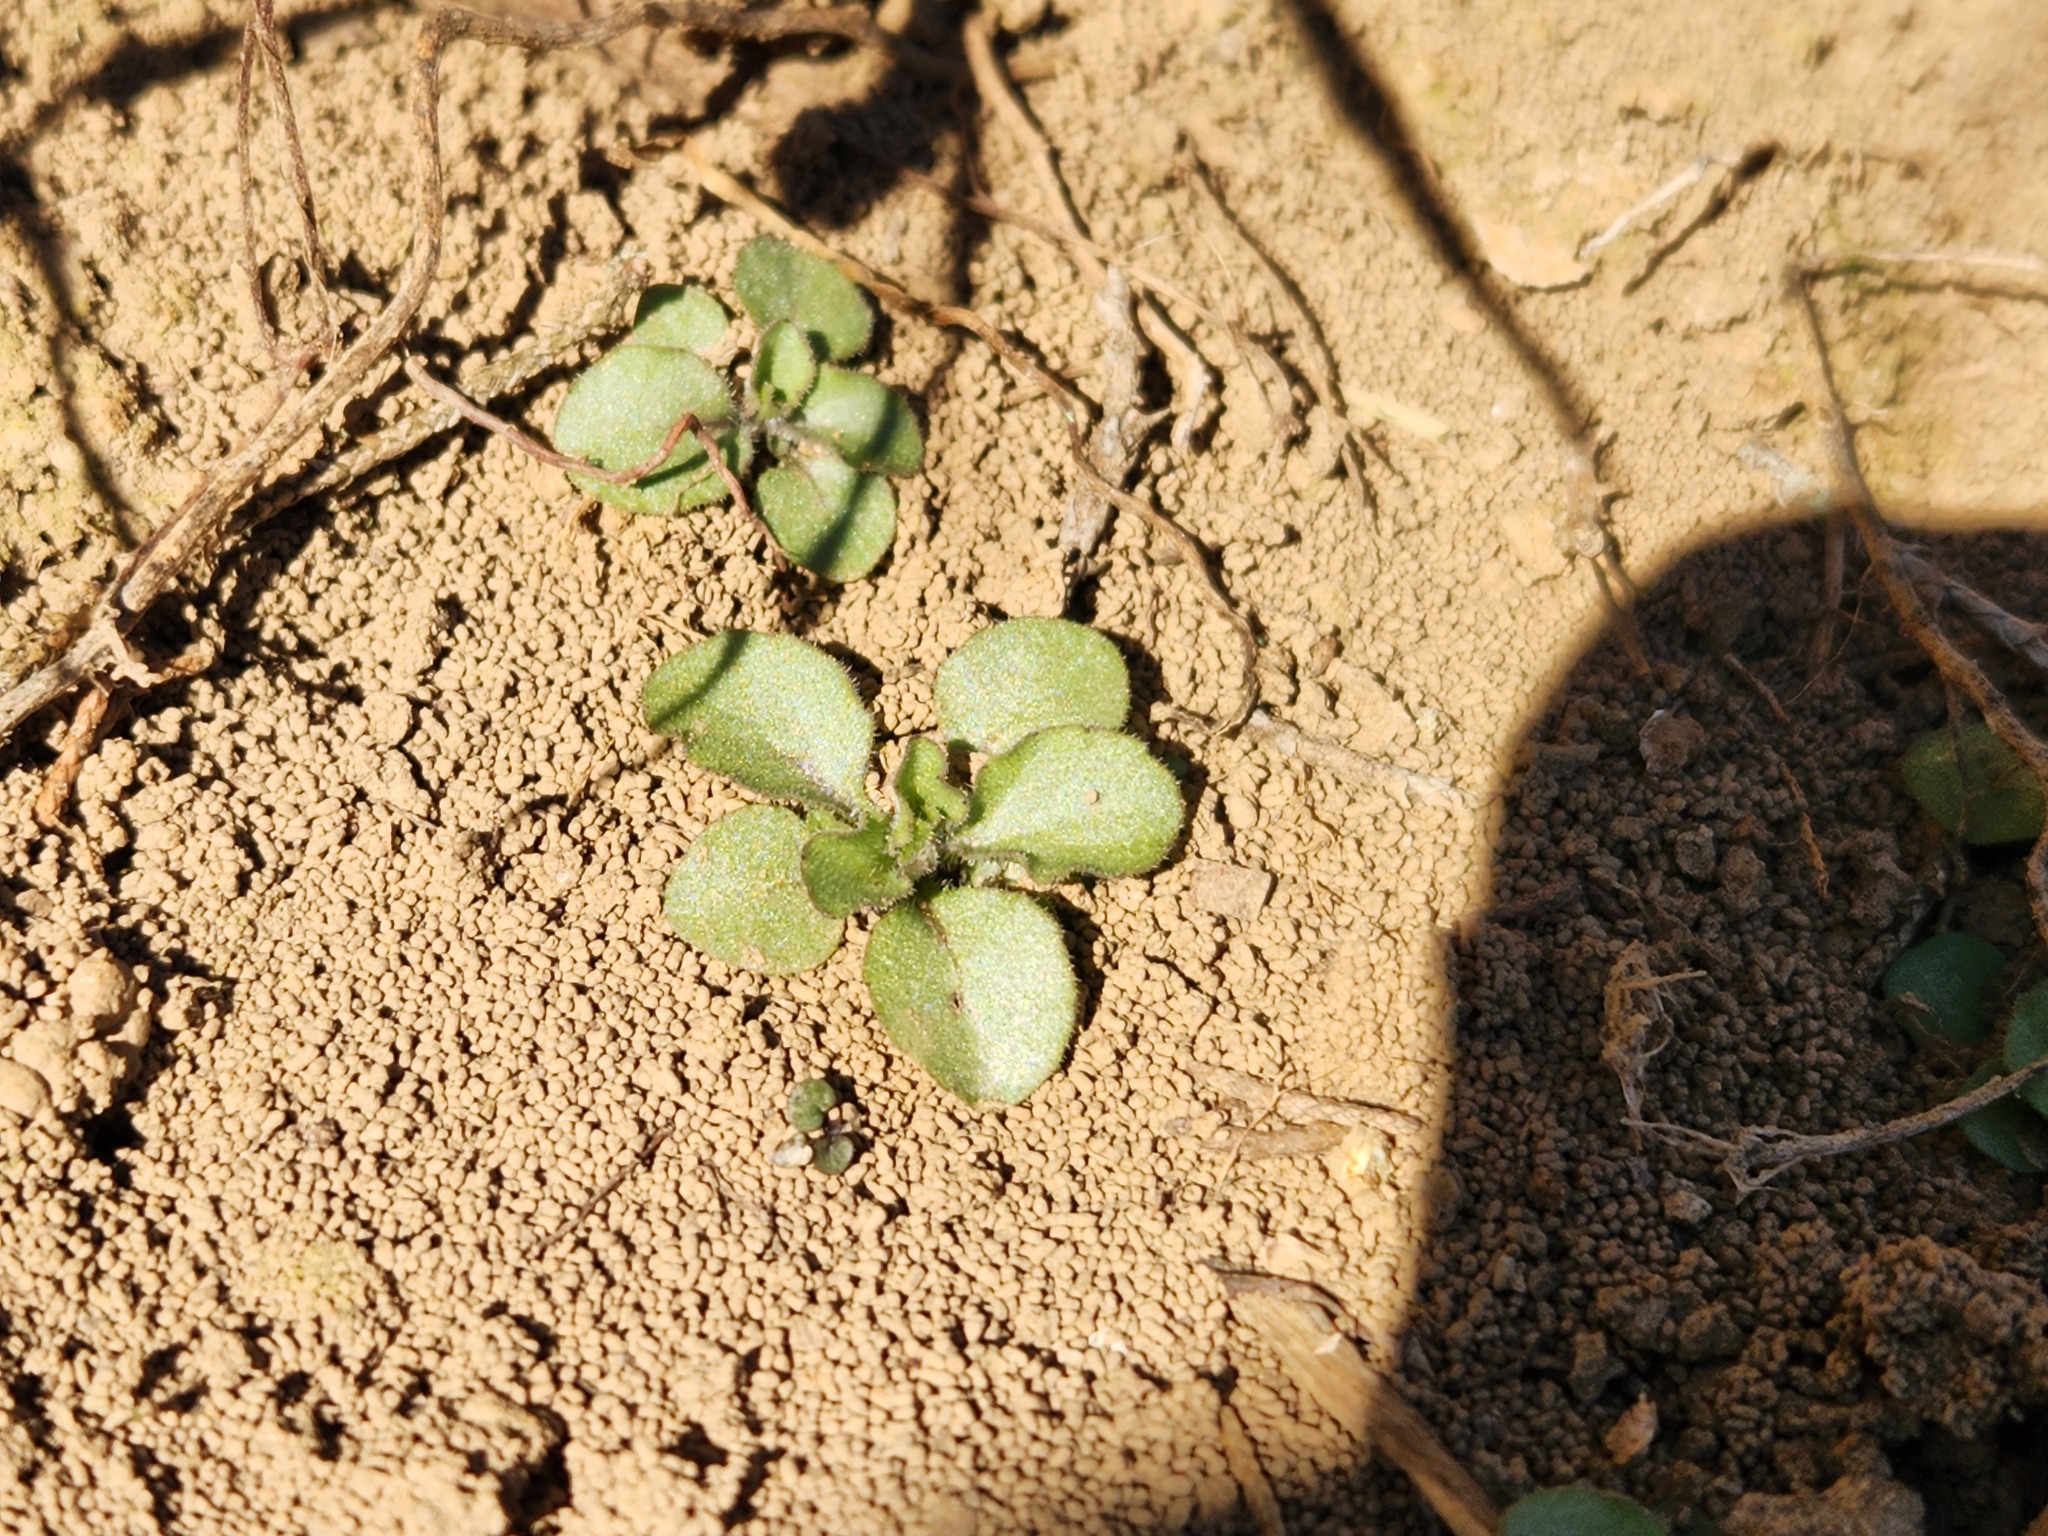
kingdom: Plantae
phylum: Tracheophyta
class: Magnoliopsida
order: Brassicales
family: Brassicaceae
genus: Physaria
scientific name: Physaria globosa
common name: Globe bladderpod
